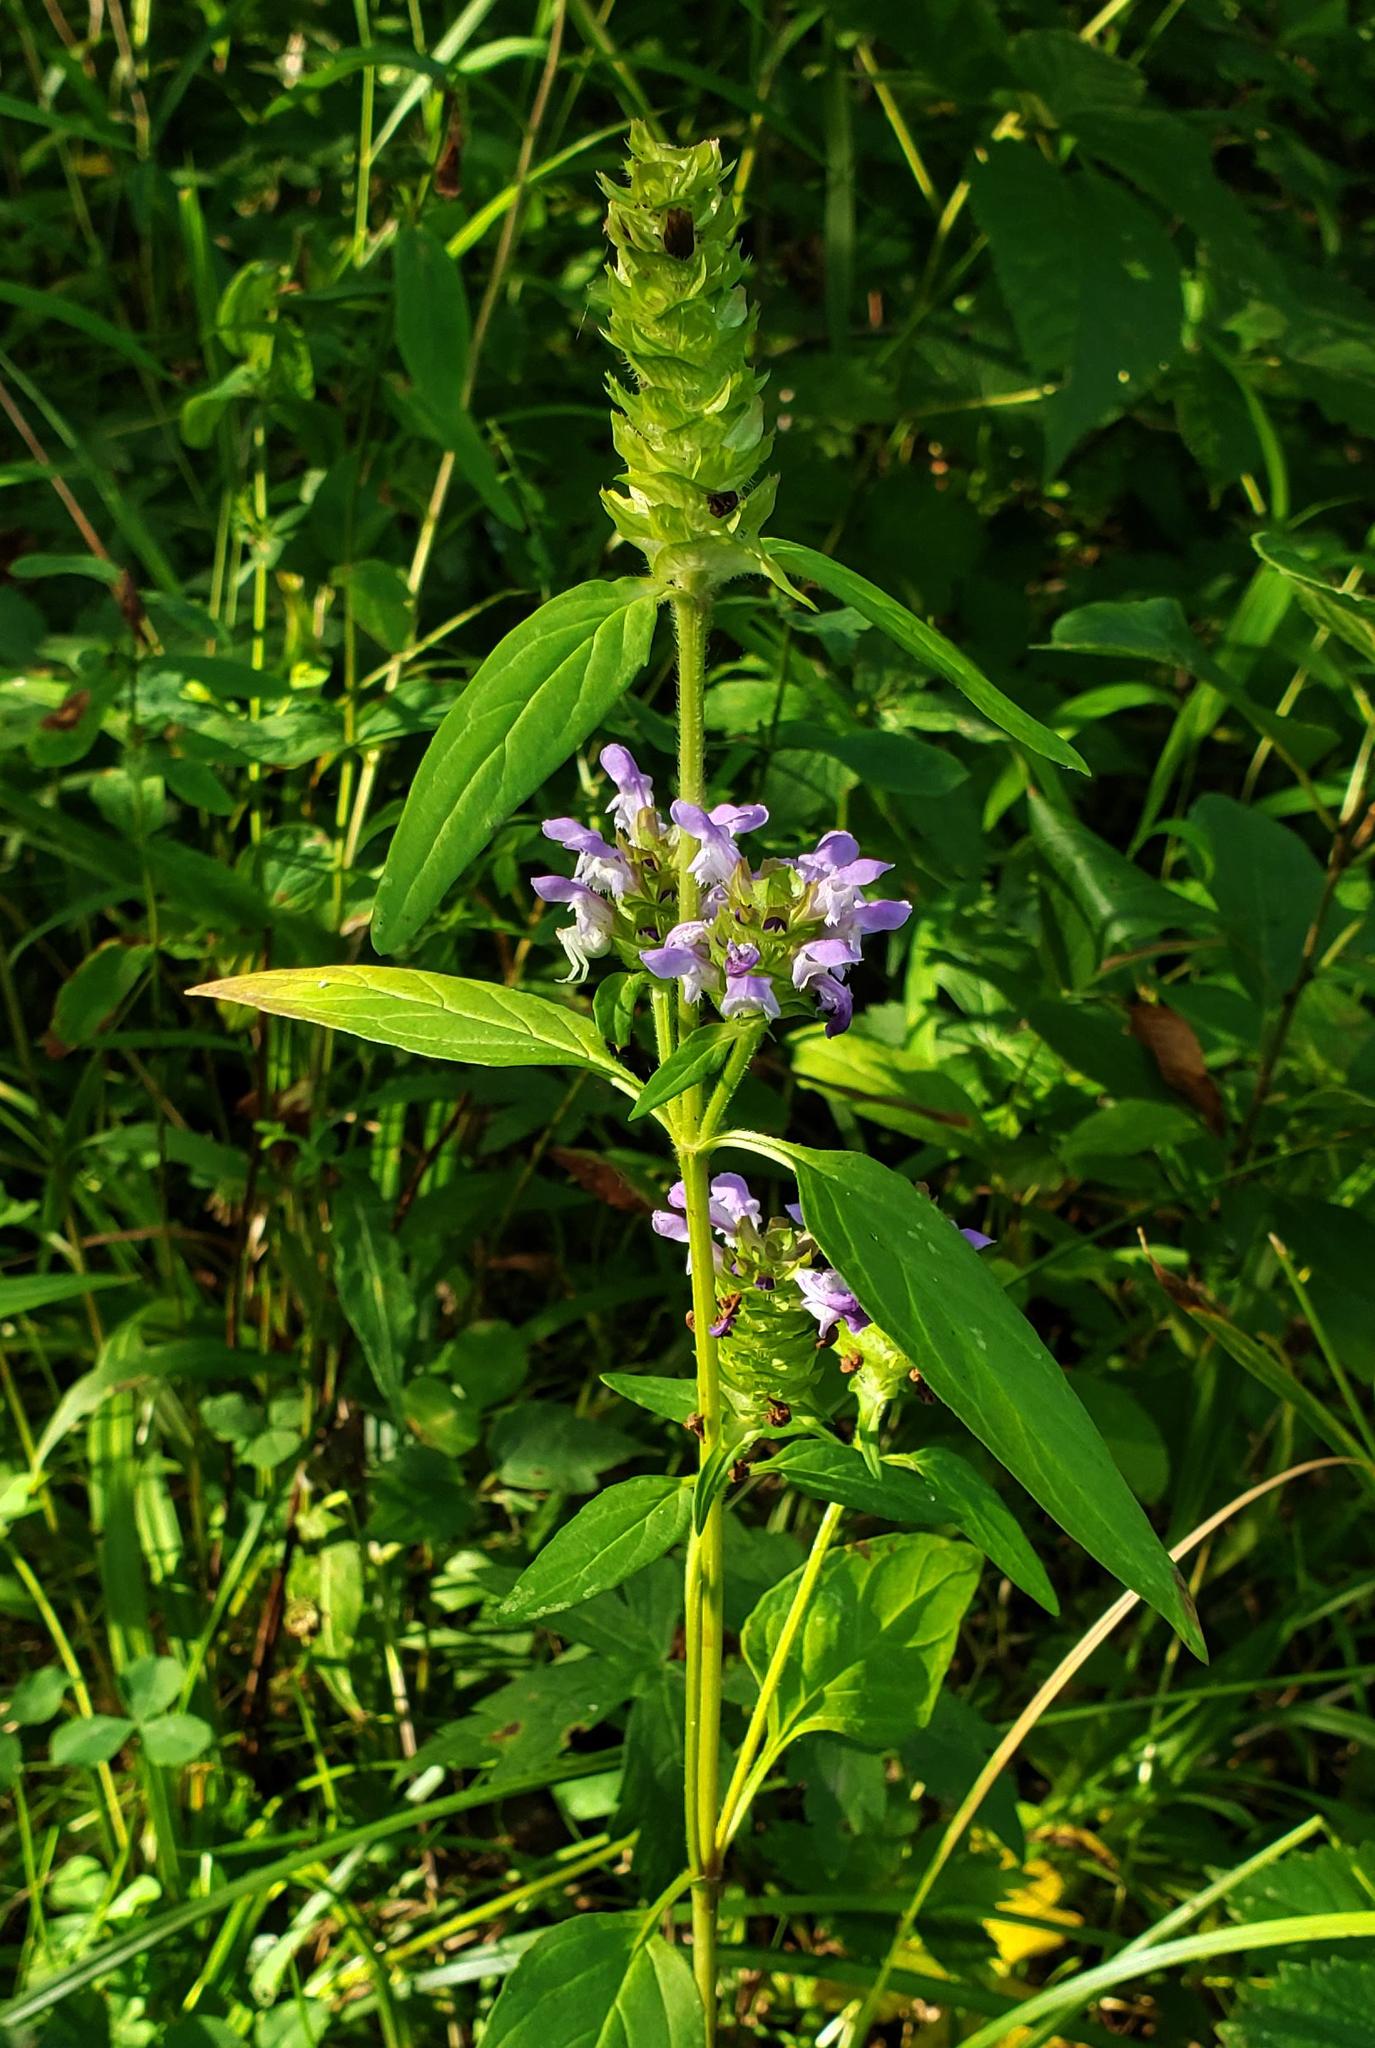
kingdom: Plantae
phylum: Tracheophyta
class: Magnoliopsida
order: Lamiales
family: Lamiaceae
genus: Prunella
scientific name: Prunella vulgaris
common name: Heal-all
